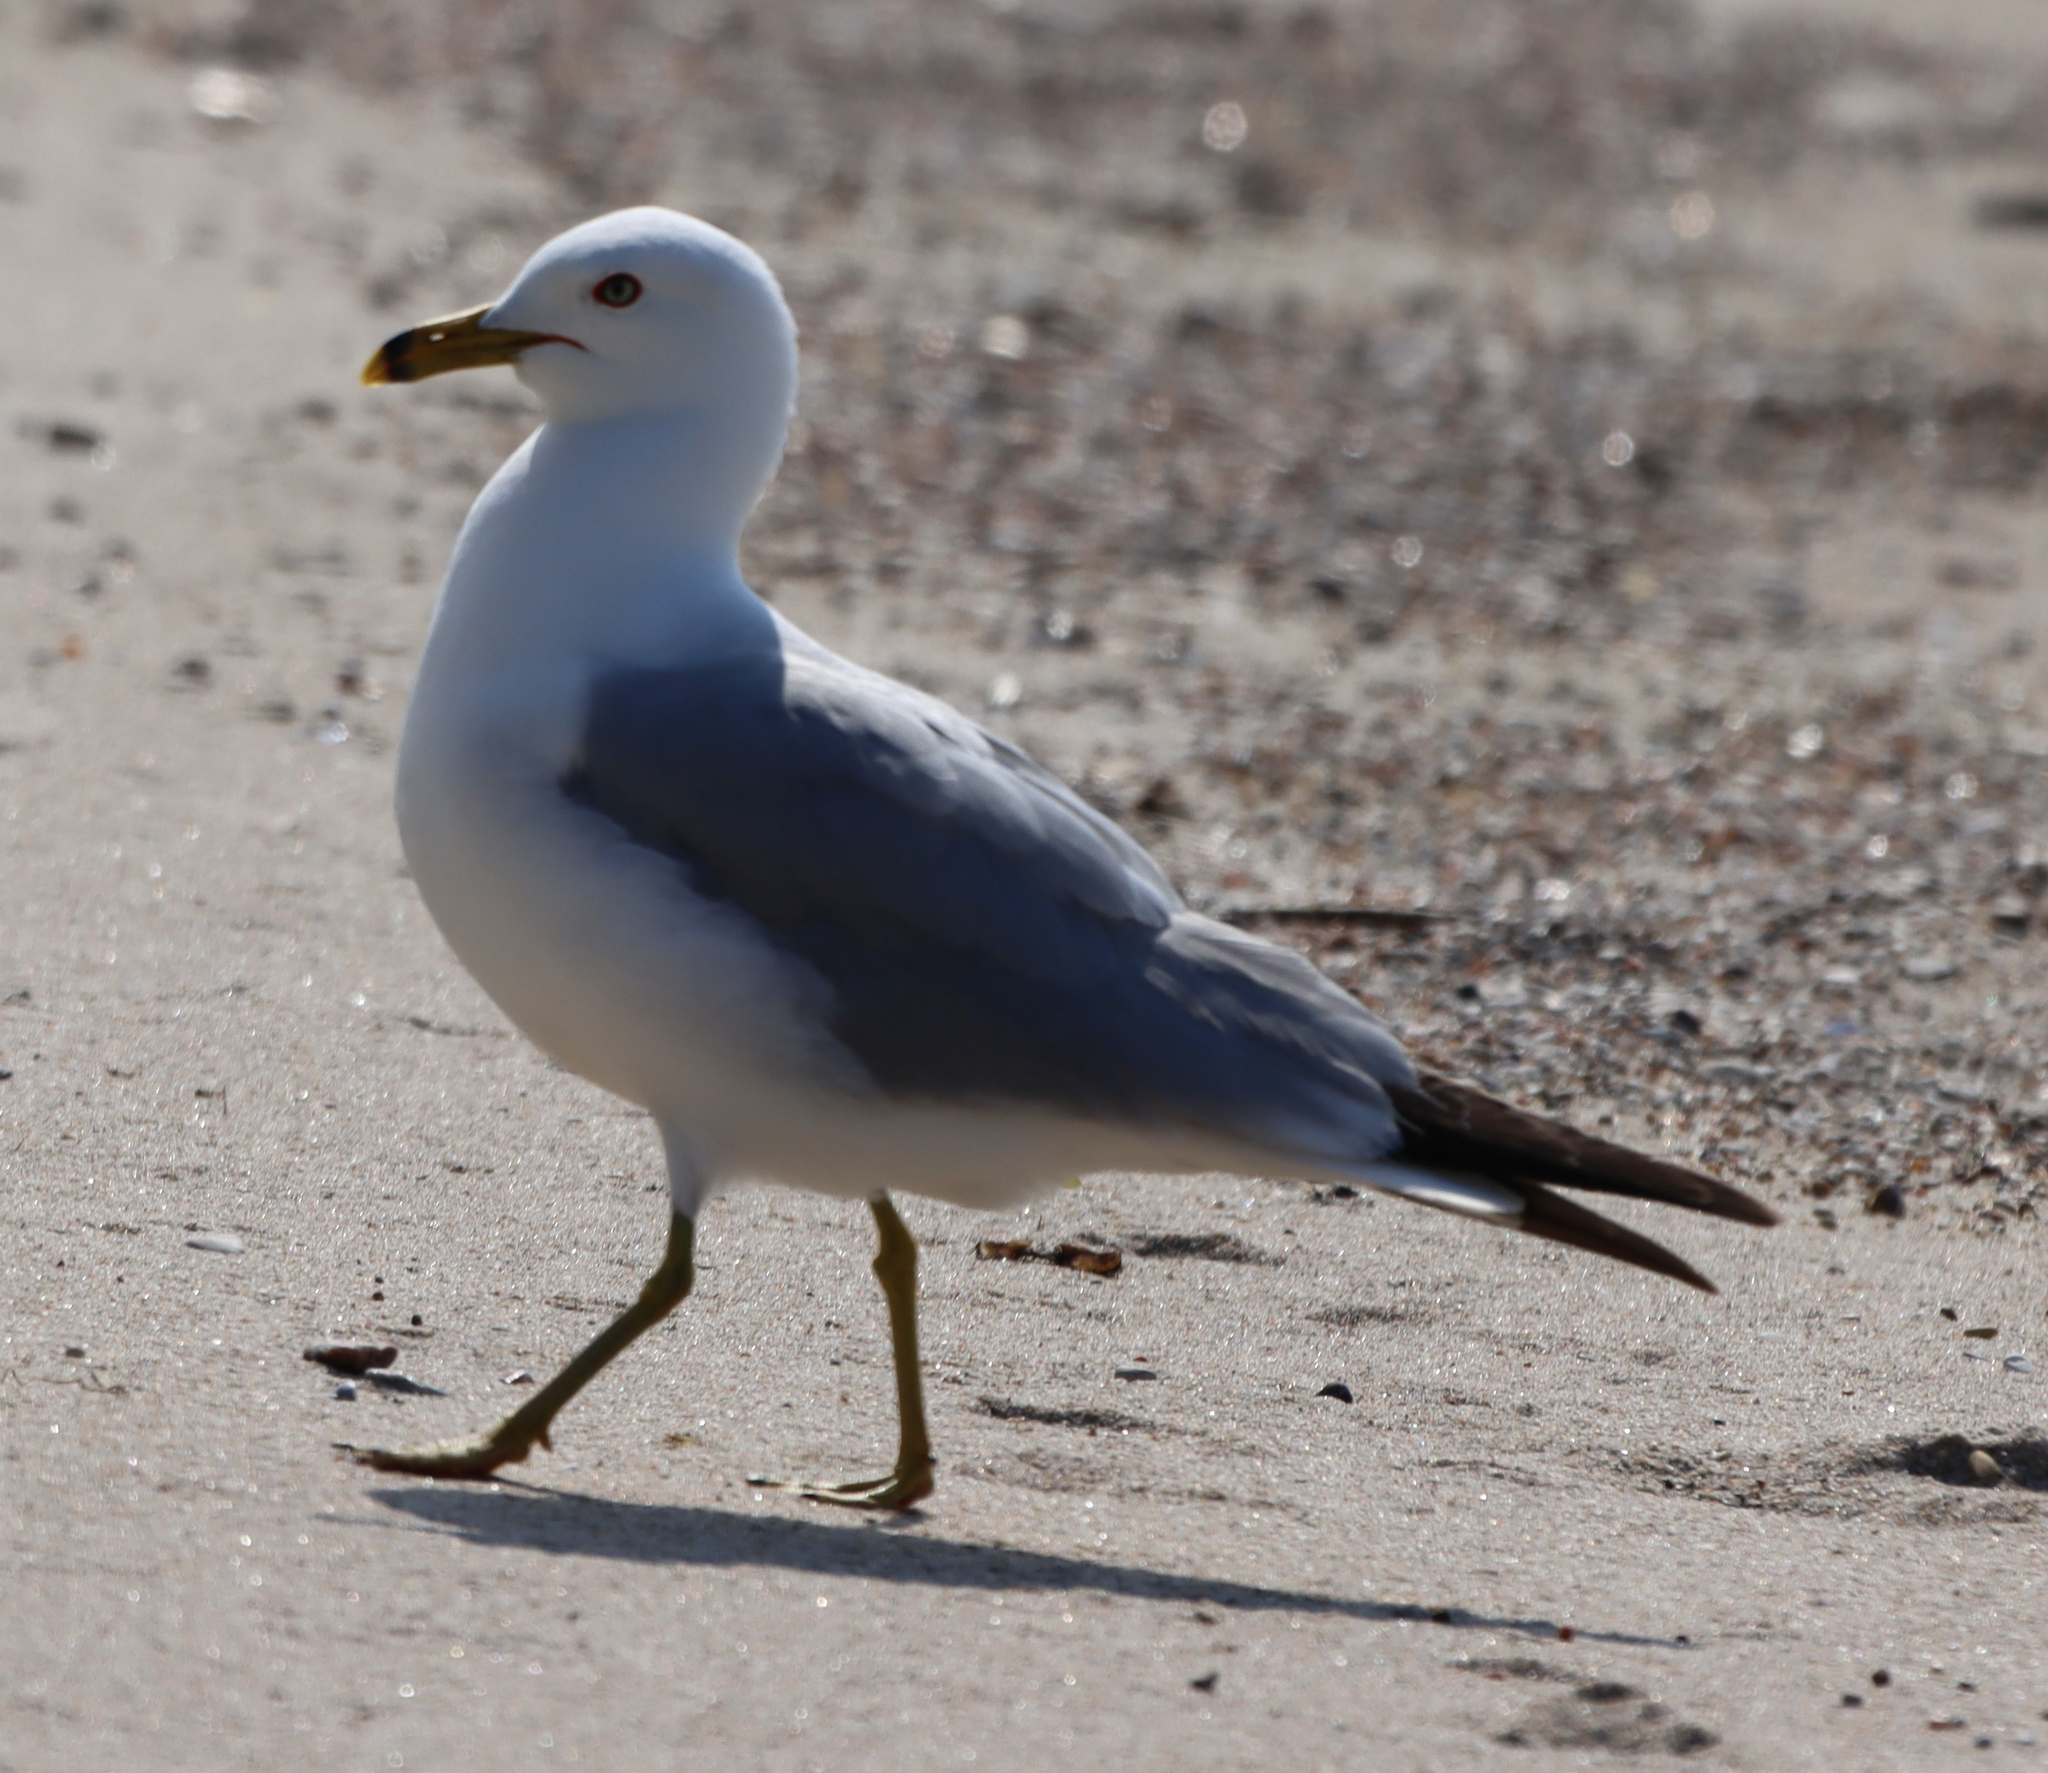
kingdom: Animalia
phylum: Chordata
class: Aves
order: Charadriiformes
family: Laridae
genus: Larus
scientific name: Larus delawarensis
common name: Ring-billed gull
